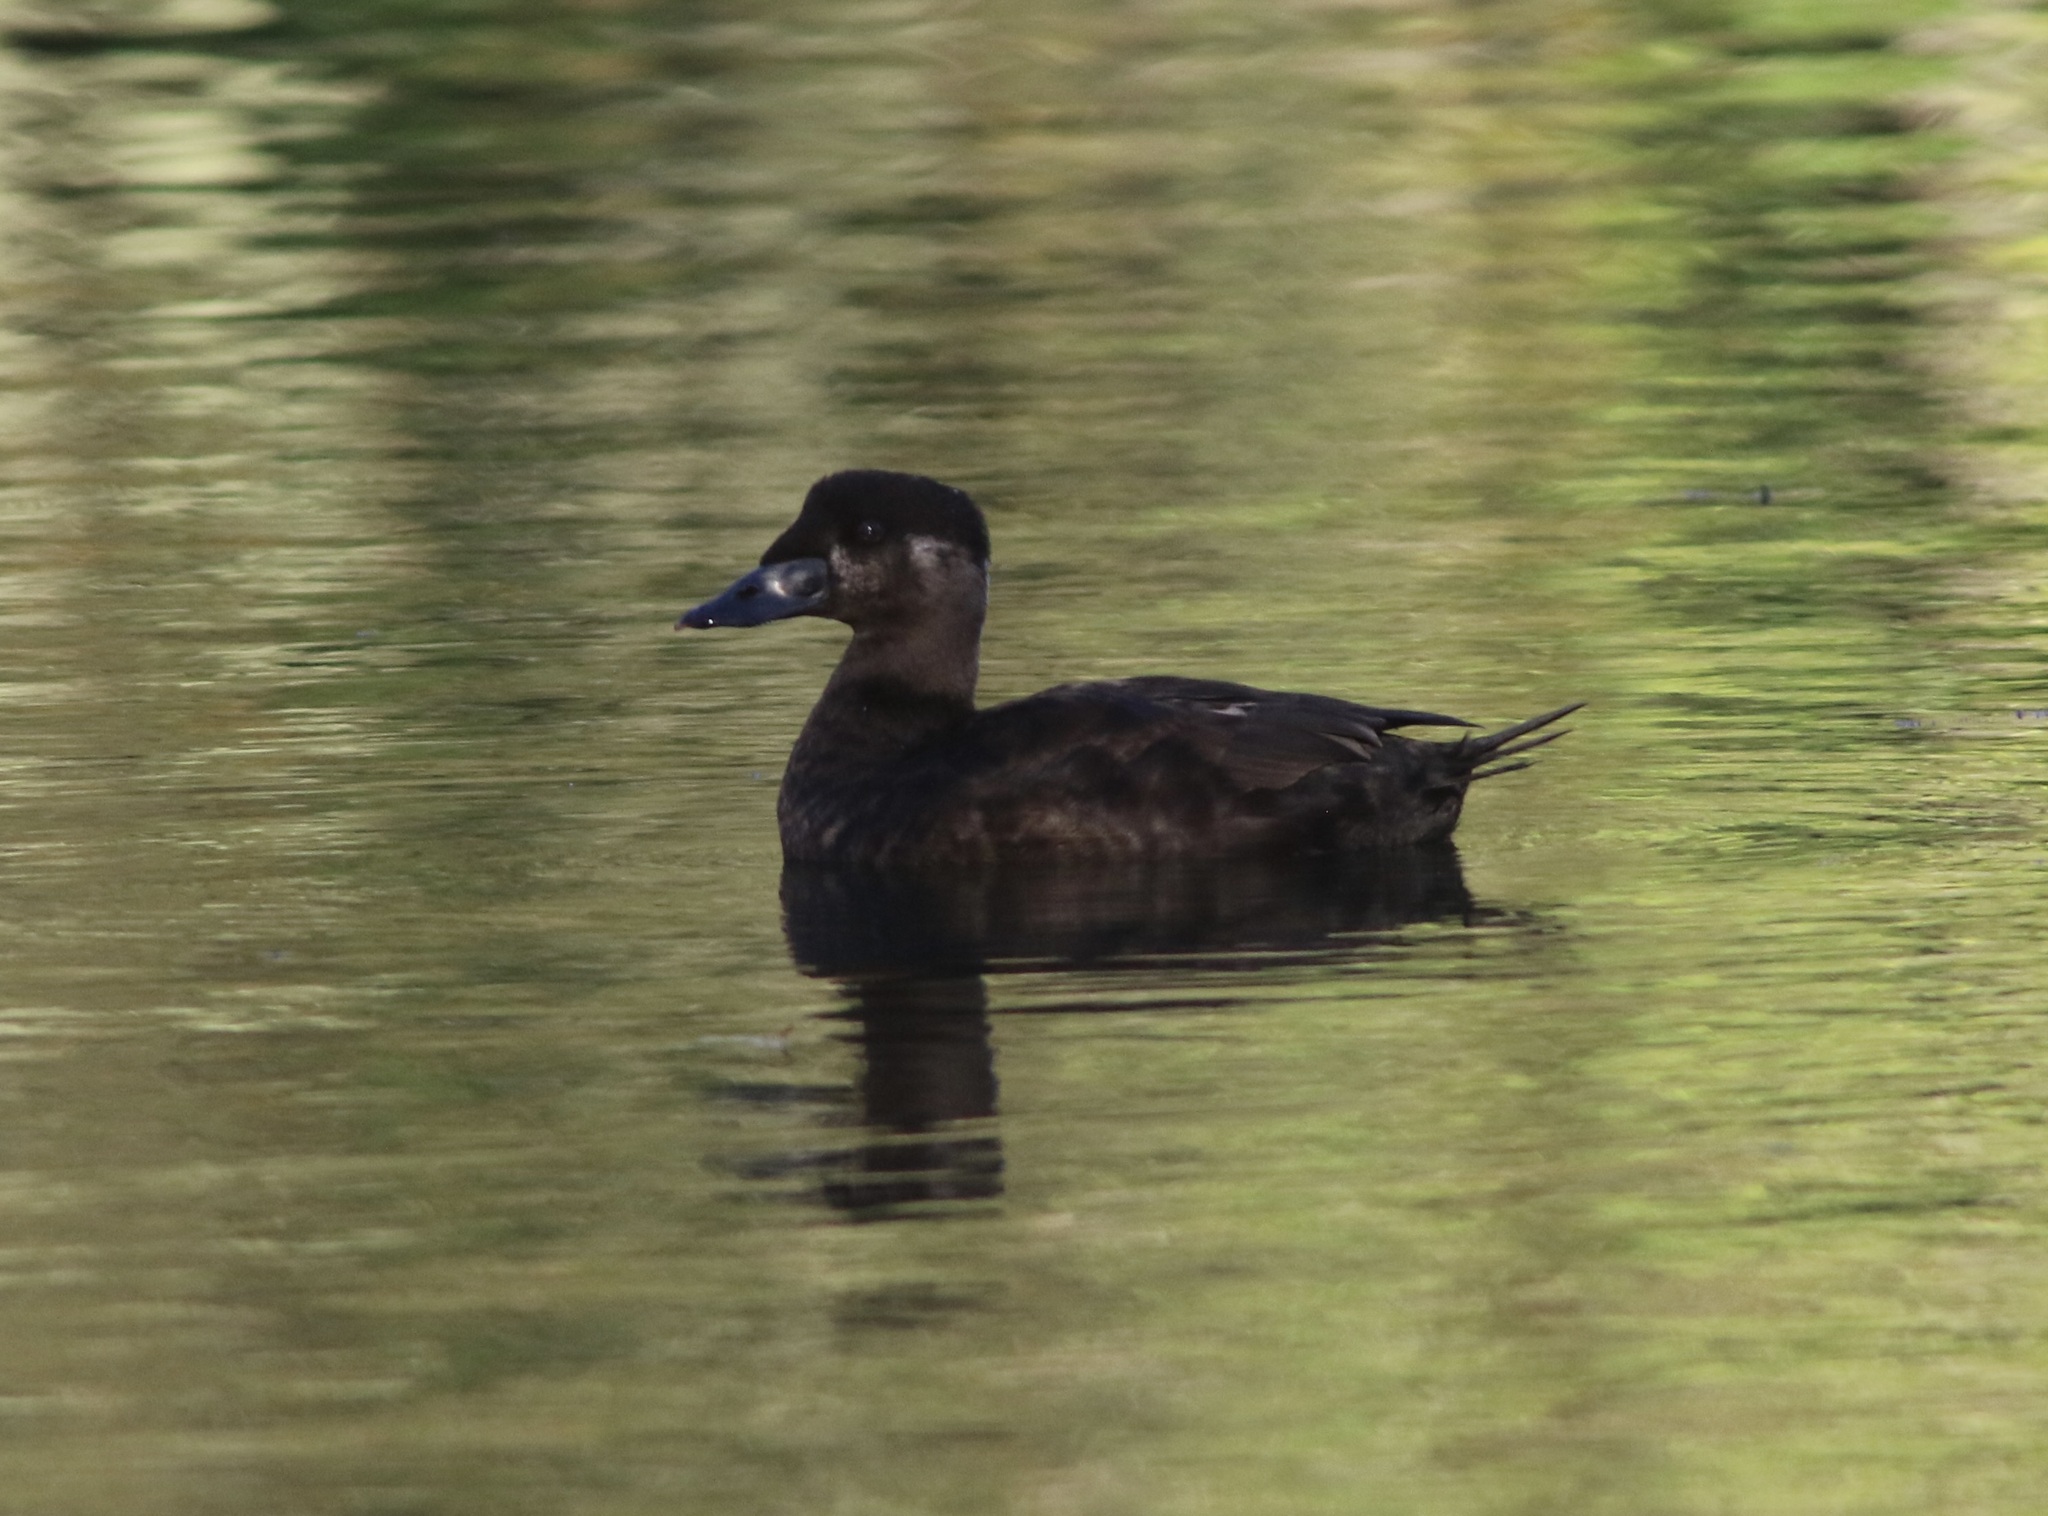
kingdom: Animalia
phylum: Chordata
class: Aves
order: Anseriformes
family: Anatidae
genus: Melanitta
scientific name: Melanitta perspicillata
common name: Surf scoter
